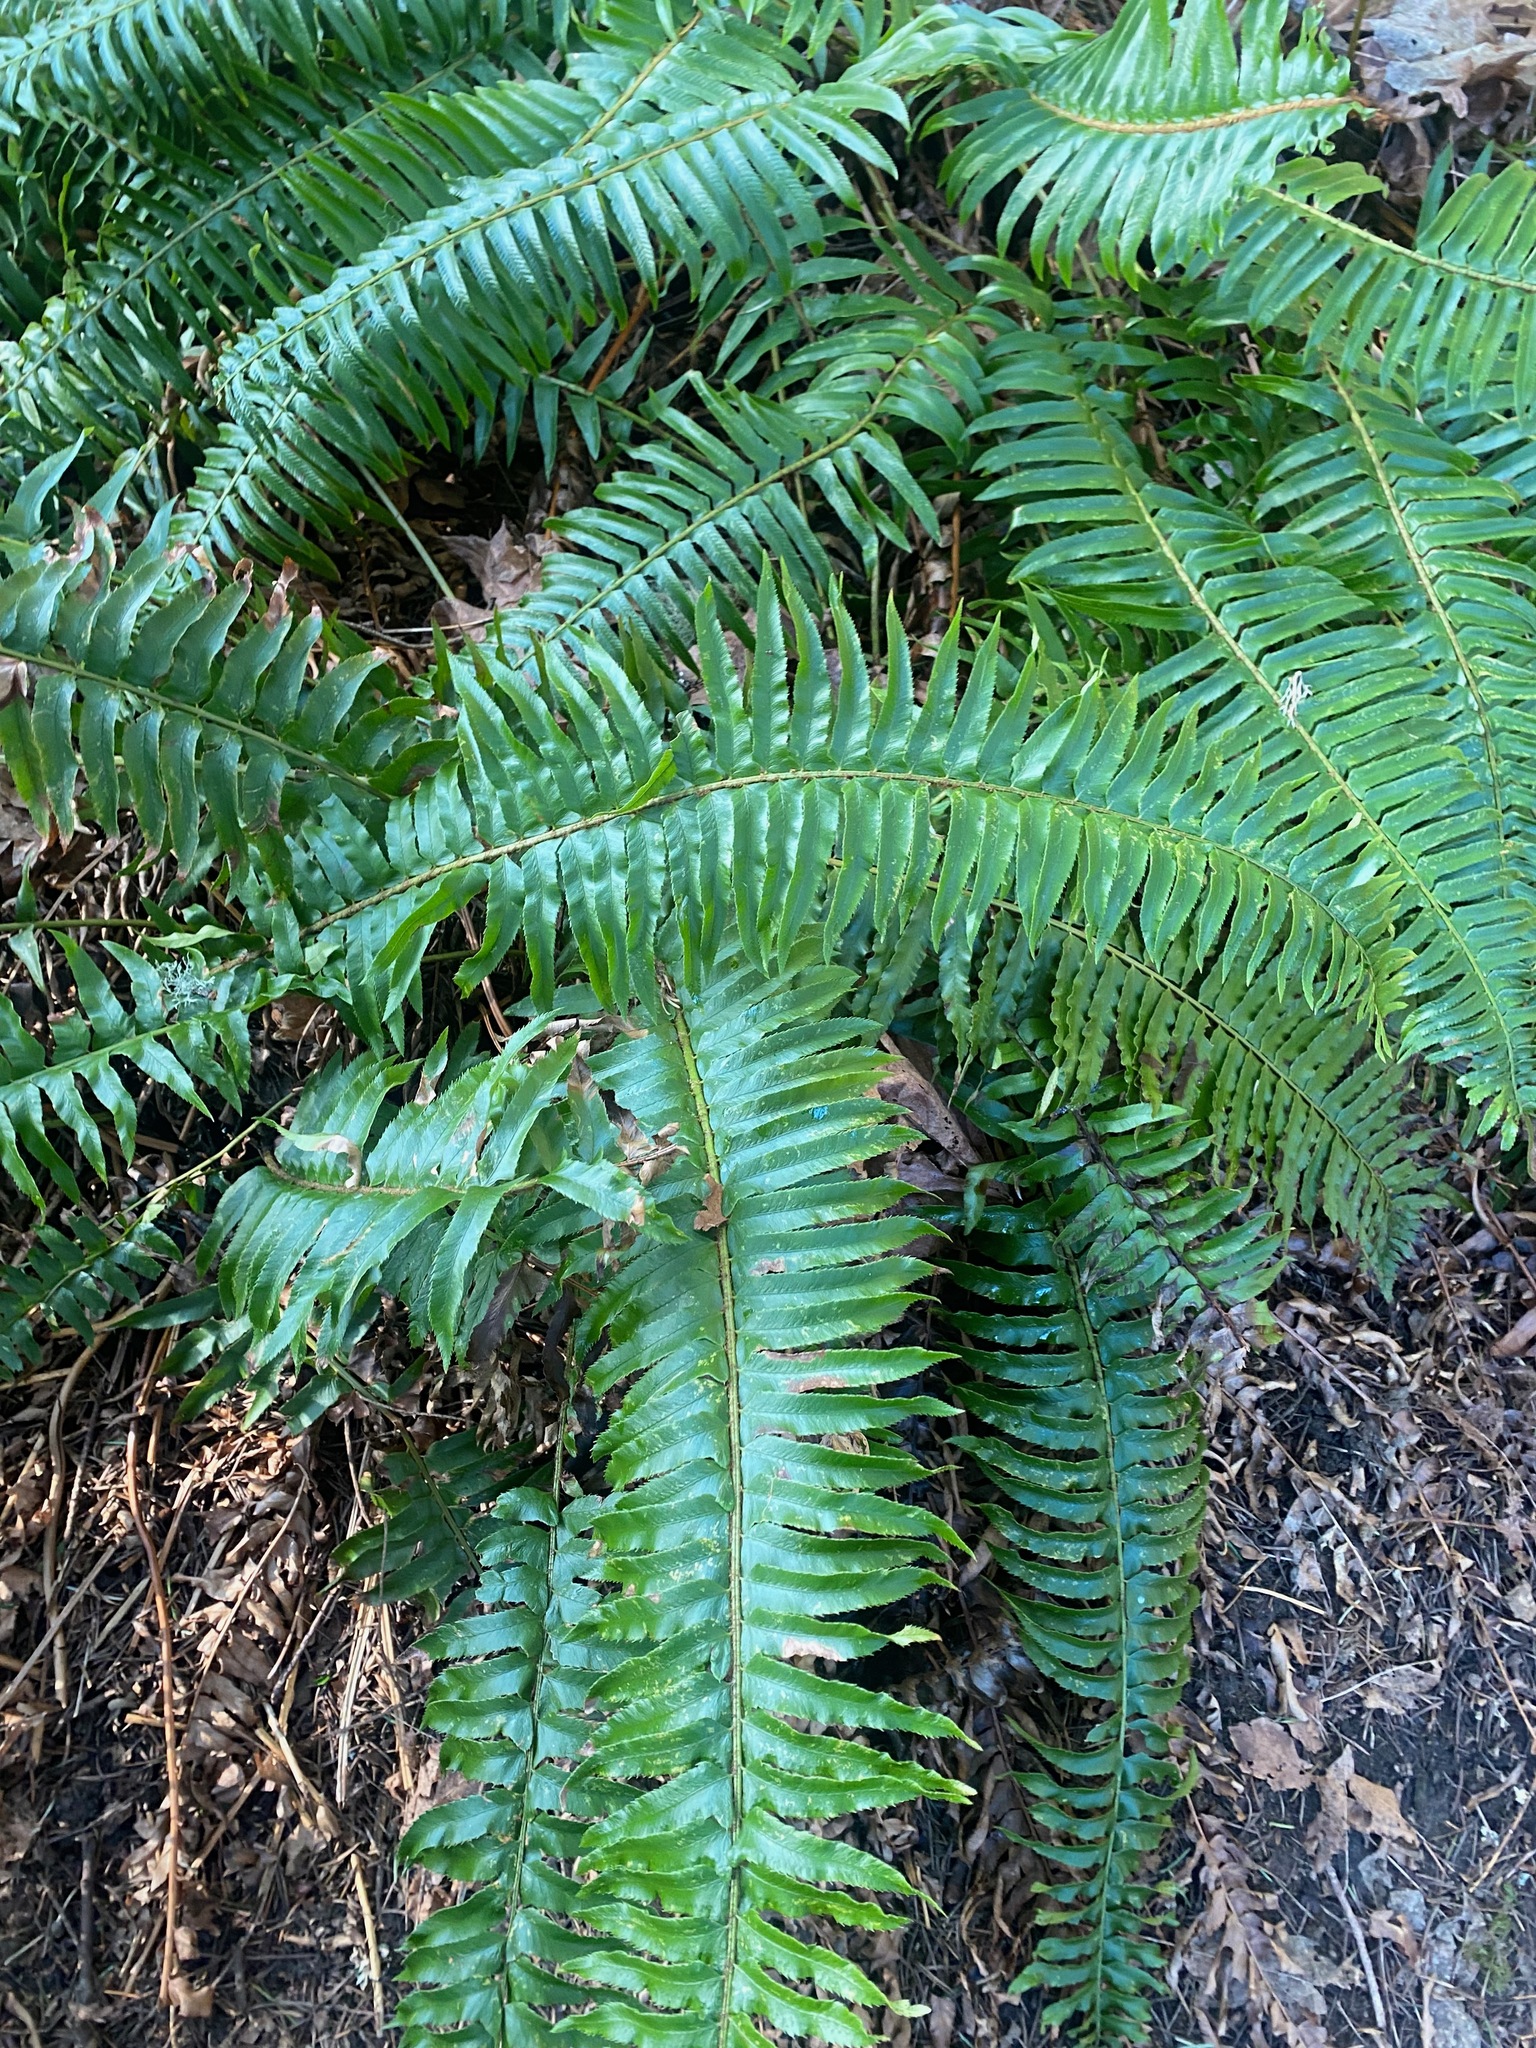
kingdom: Plantae
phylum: Tracheophyta
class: Polypodiopsida
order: Polypodiales
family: Dryopteridaceae
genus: Polystichum
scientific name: Polystichum munitum
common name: Western sword-fern
